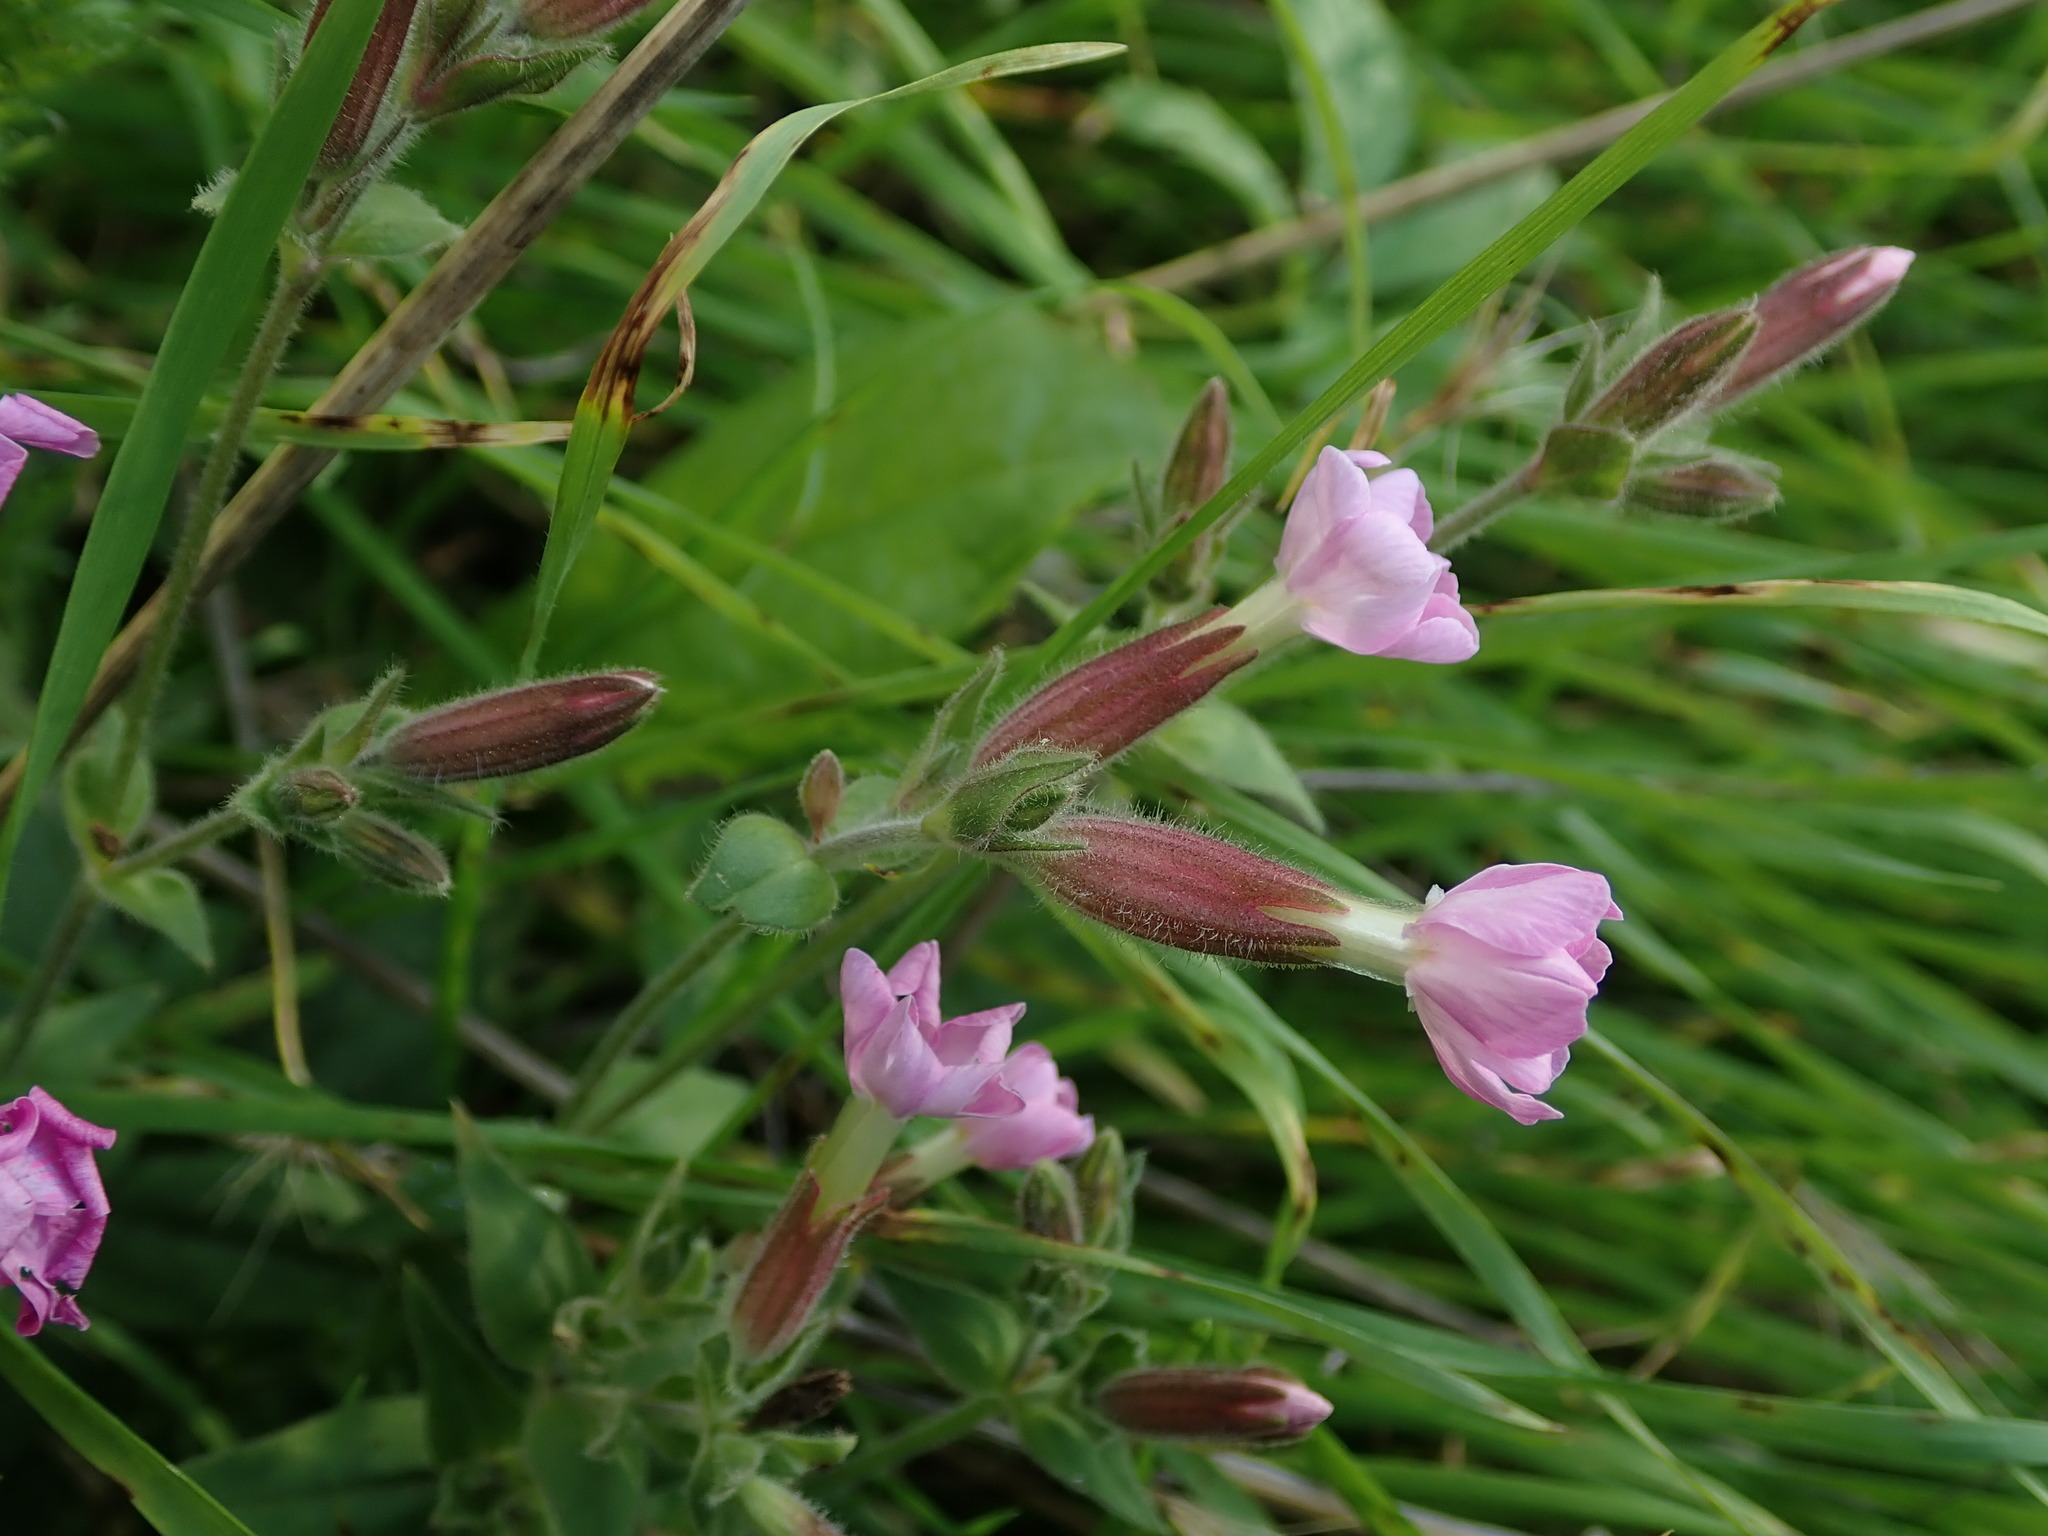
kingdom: Plantae
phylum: Tracheophyta
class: Magnoliopsida
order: Caryophyllales
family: Caryophyllaceae
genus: Silene
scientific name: Silene dioica
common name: Red campion
